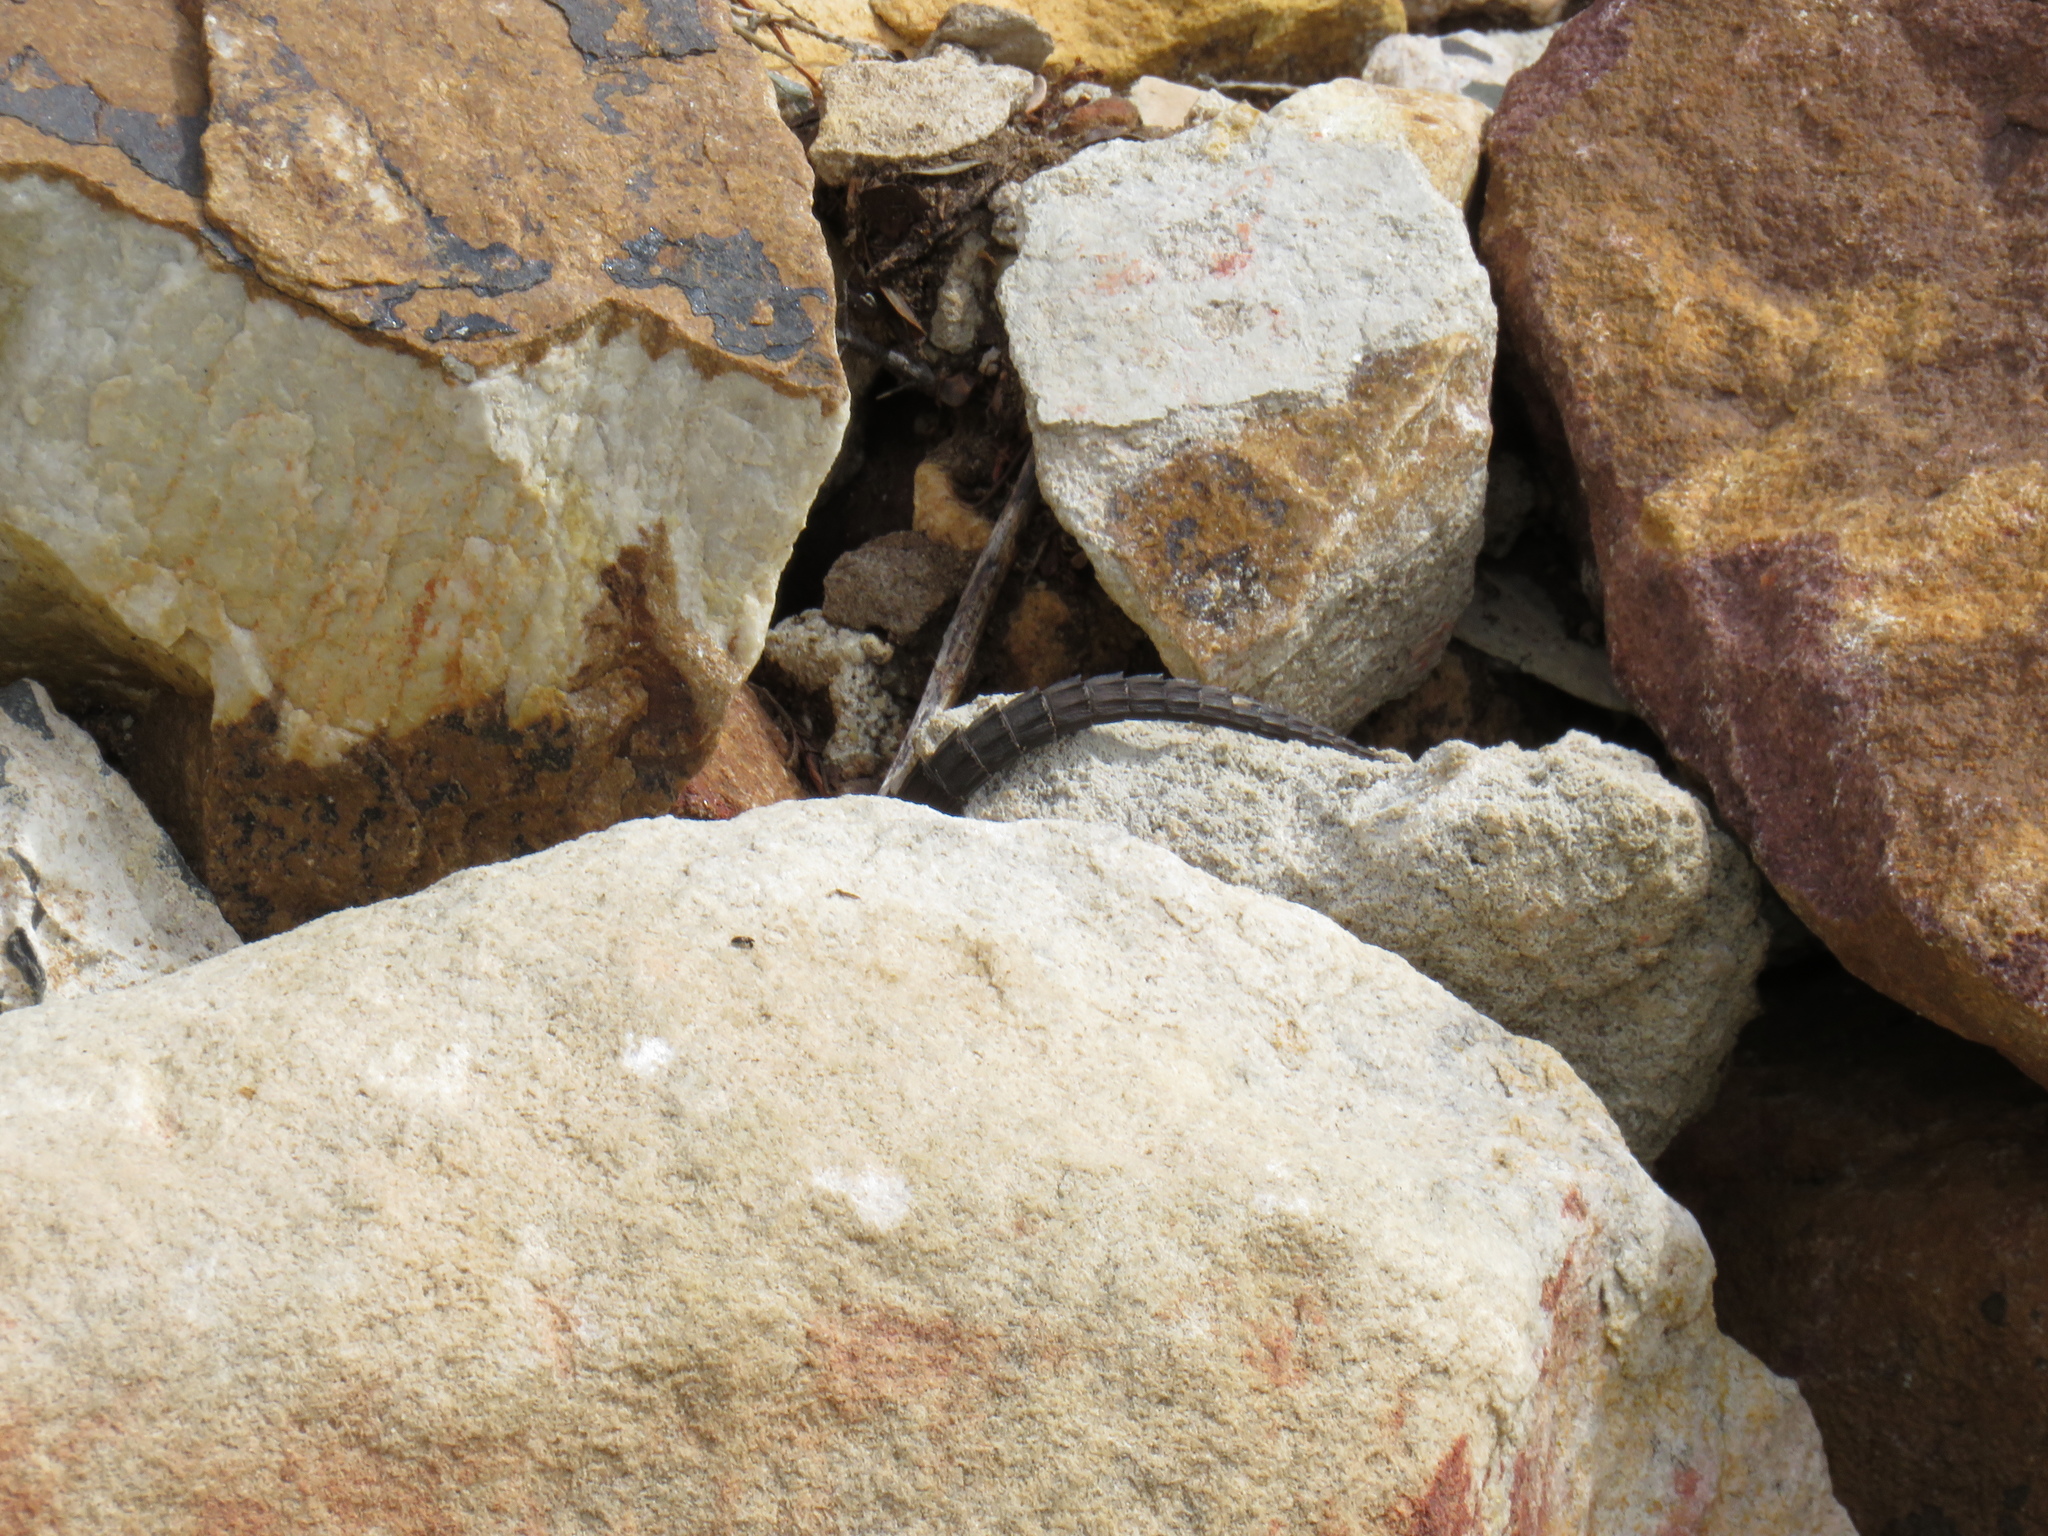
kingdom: Animalia
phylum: Chordata
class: Squamata
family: Cordylidae
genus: Cordylus
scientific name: Cordylus niger
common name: Black girdled lizard
